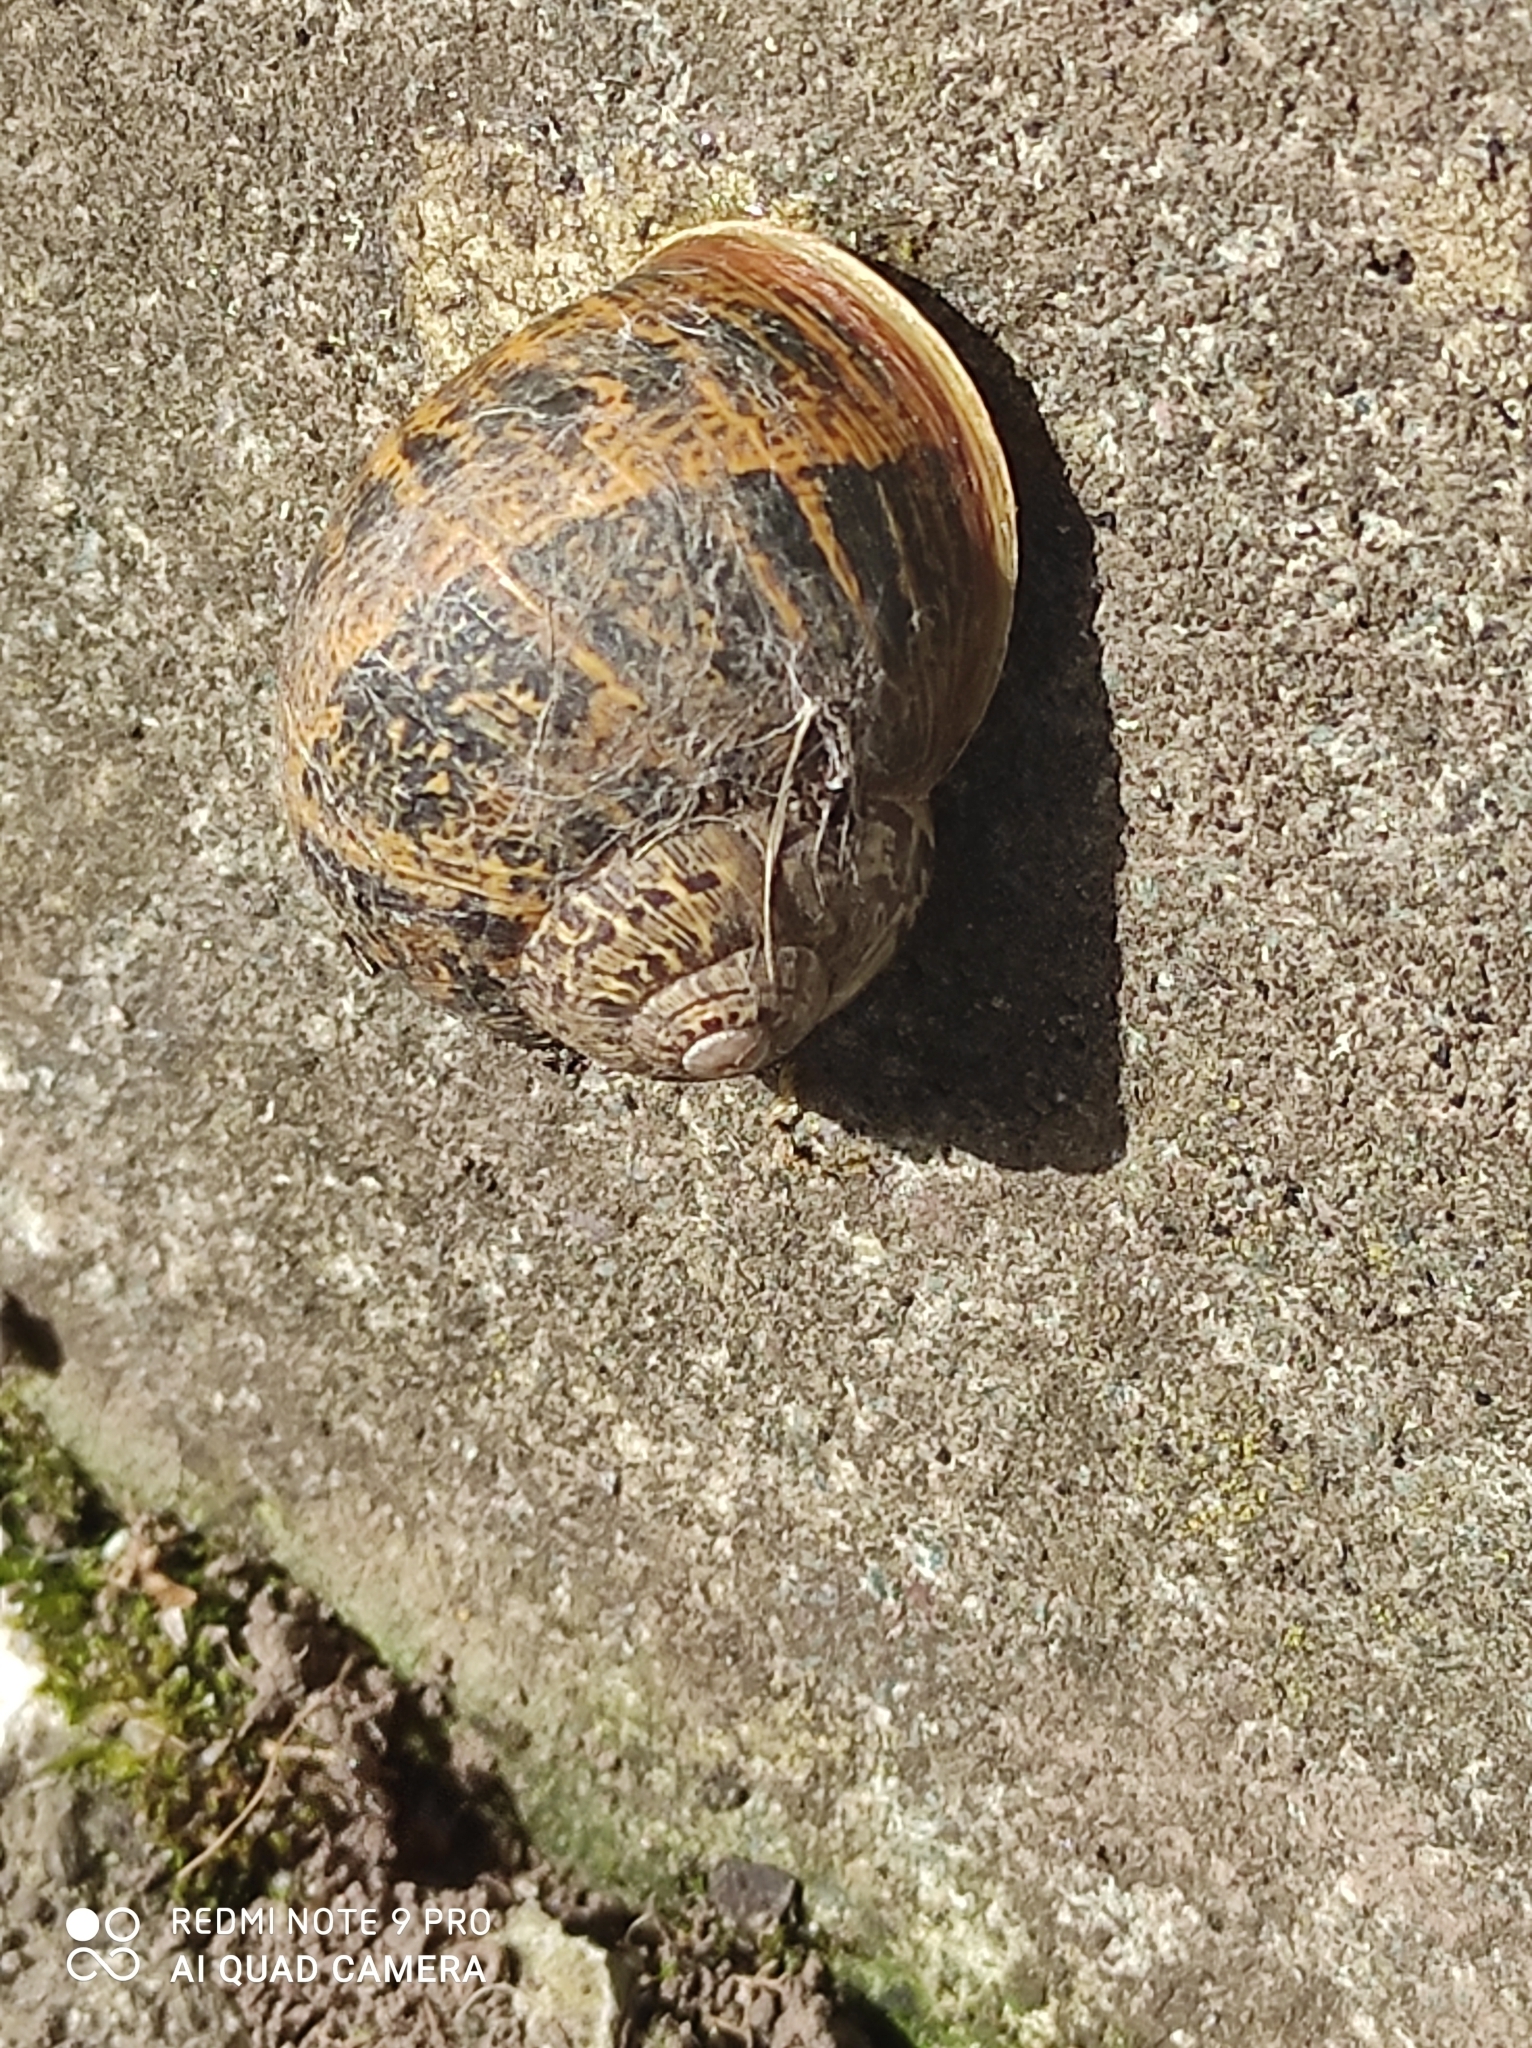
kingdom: Animalia
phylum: Mollusca
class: Gastropoda
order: Stylommatophora
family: Helicidae
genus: Cornu
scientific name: Cornu aspersum
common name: Brown garden snail
